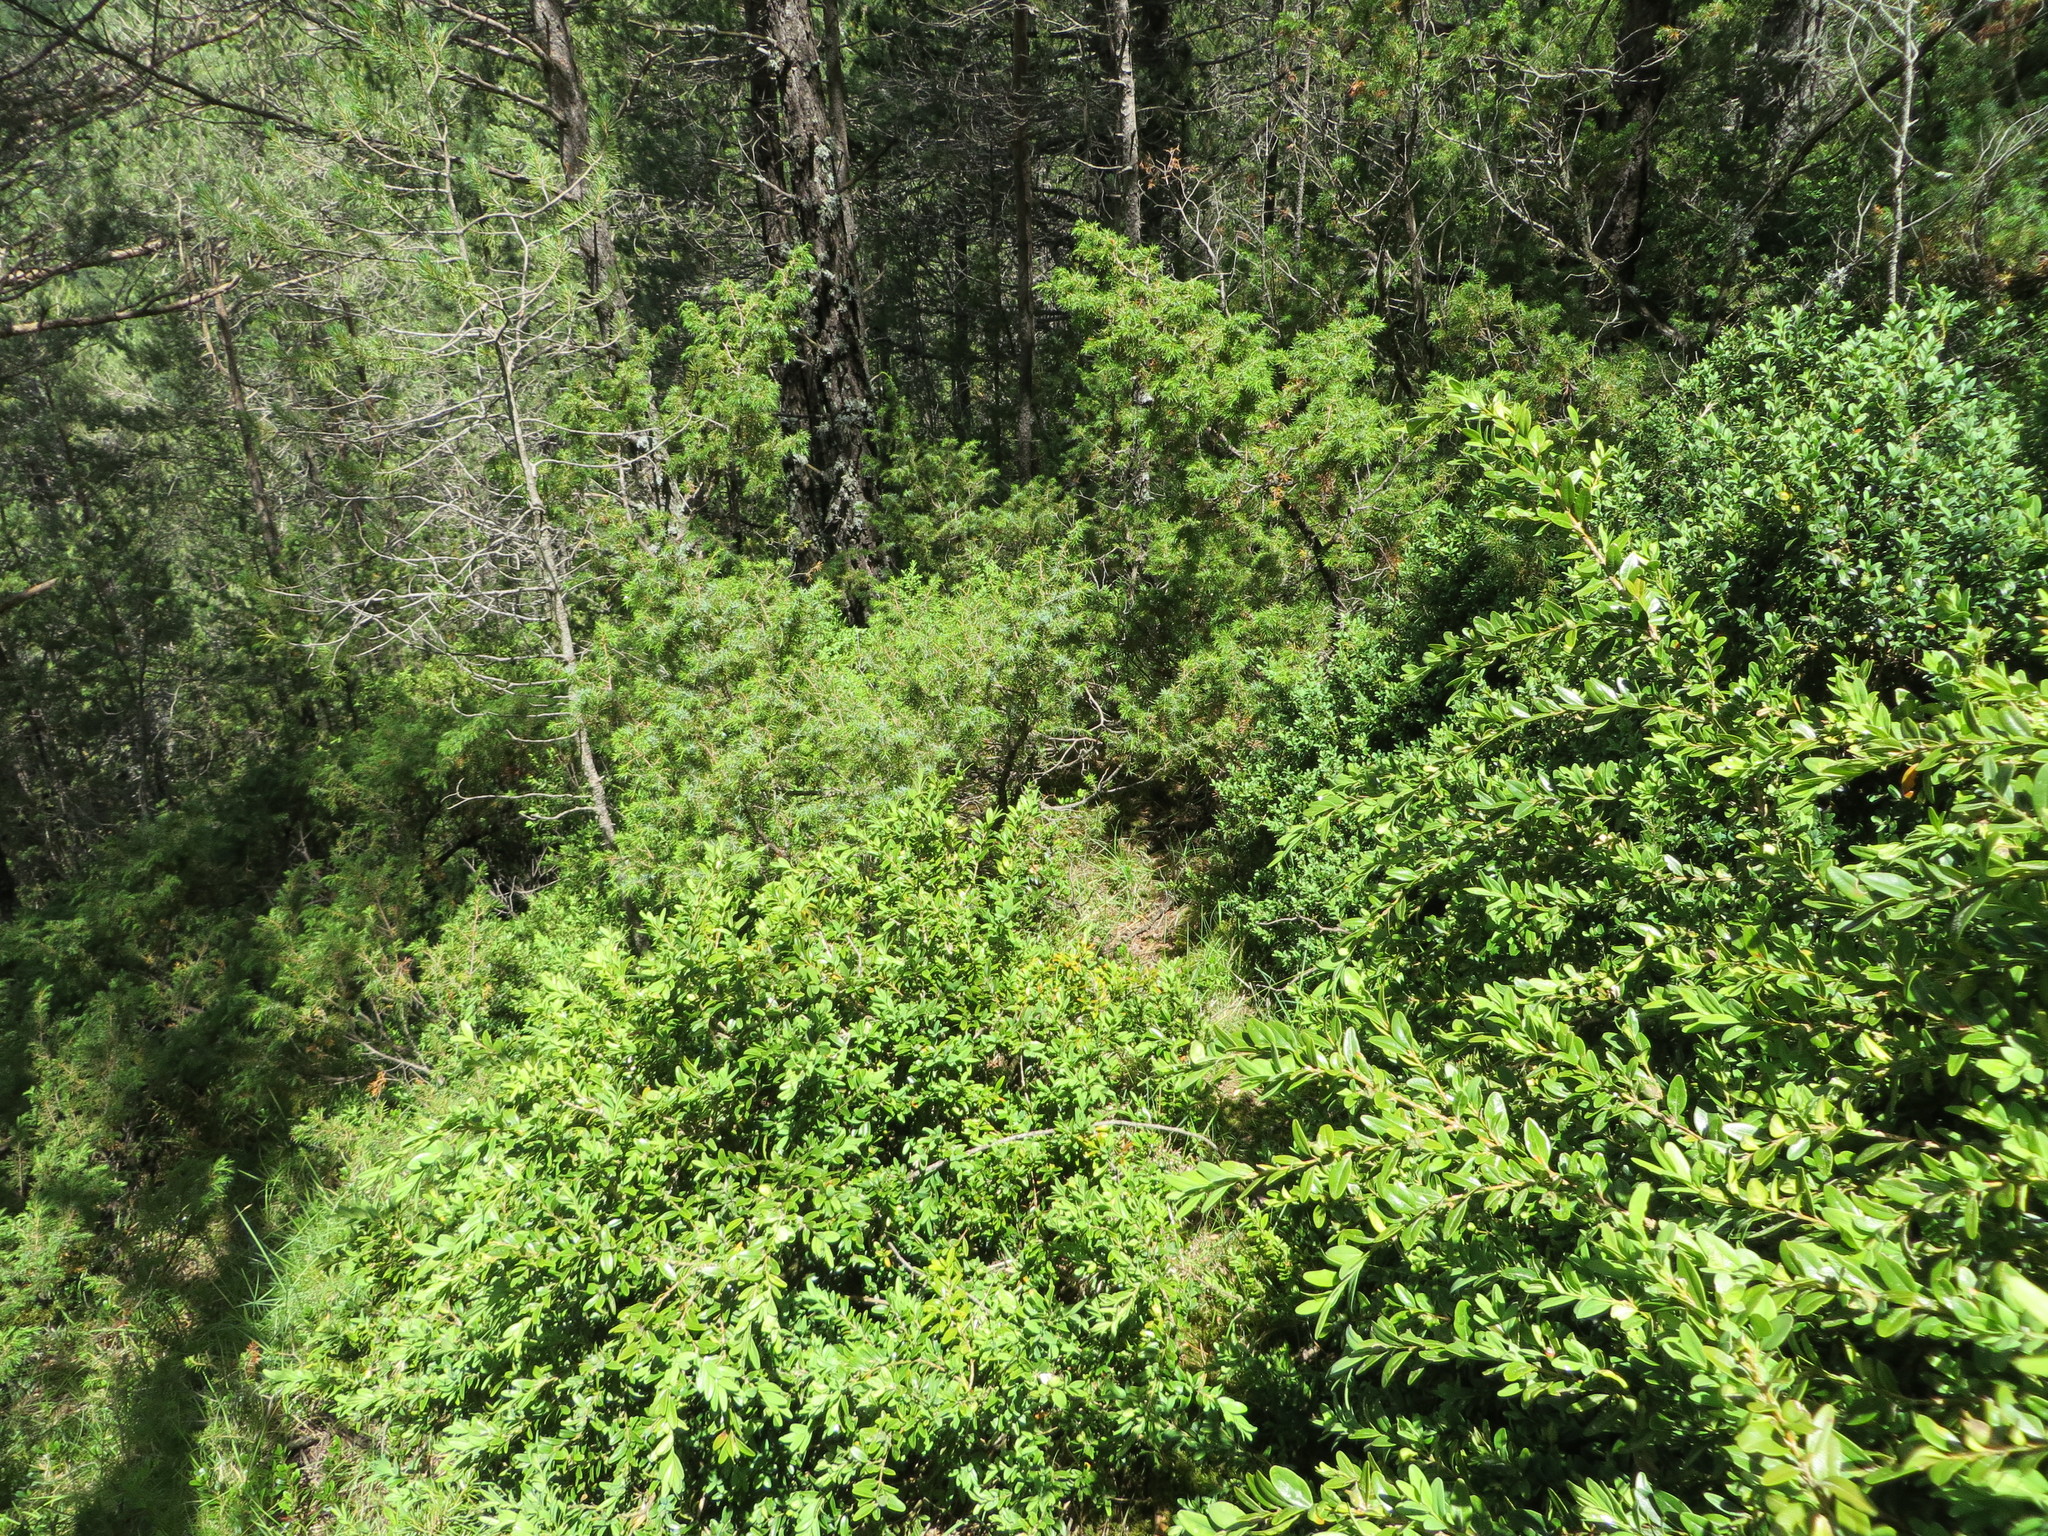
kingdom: Plantae
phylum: Tracheophyta
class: Magnoliopsida
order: Buxales
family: Buxaceae
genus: Buxus
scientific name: Buxus sempervirens
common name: Box
